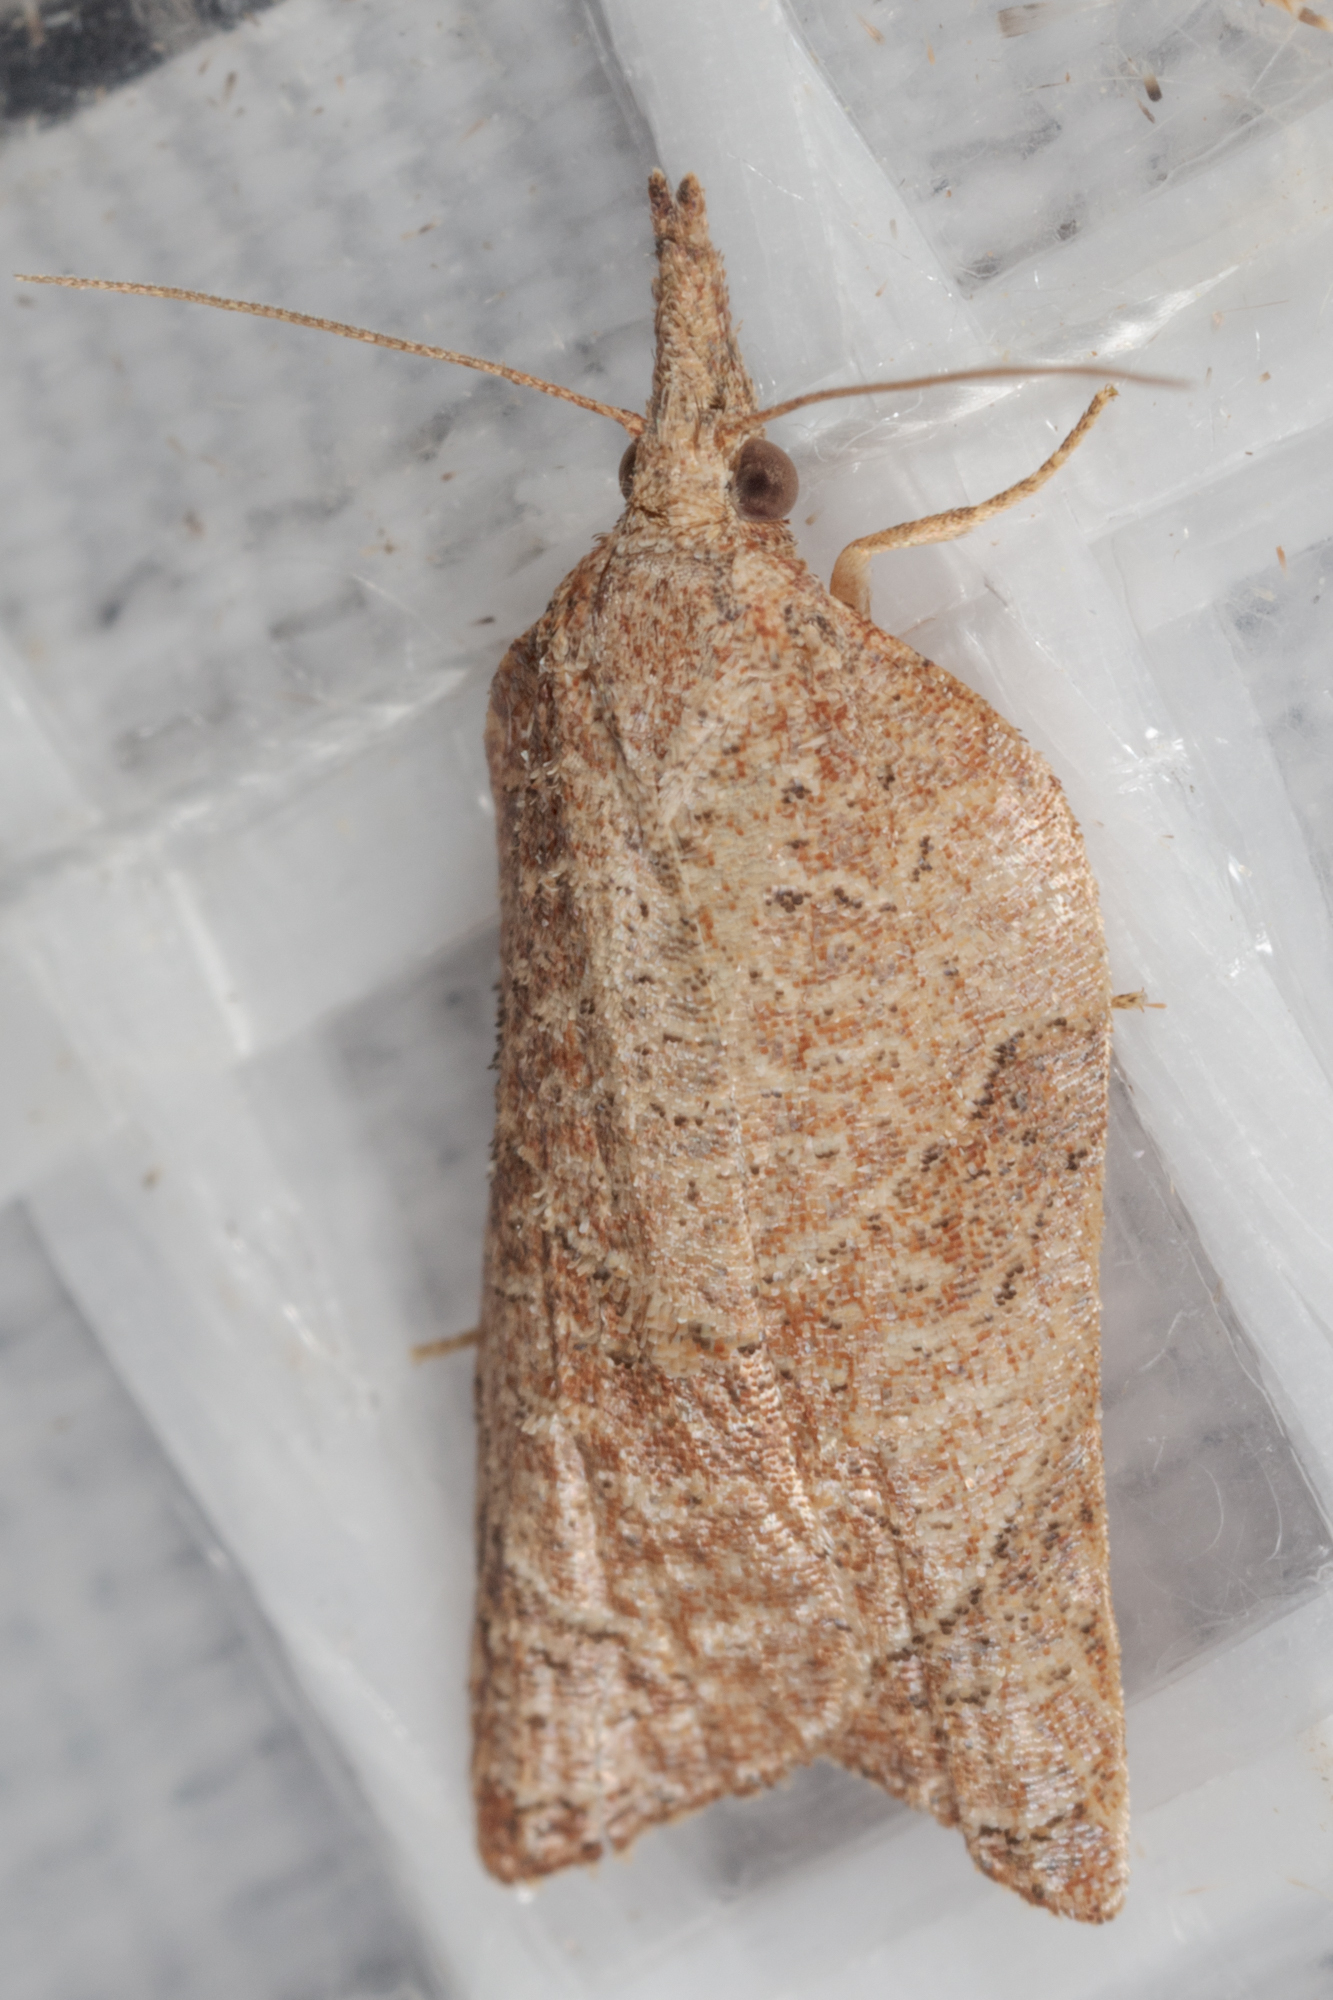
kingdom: Animalia
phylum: Arthropoda
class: Insecta
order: Lepidoptera
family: Tortricidae
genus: Platynota
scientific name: Platynota rostrana
